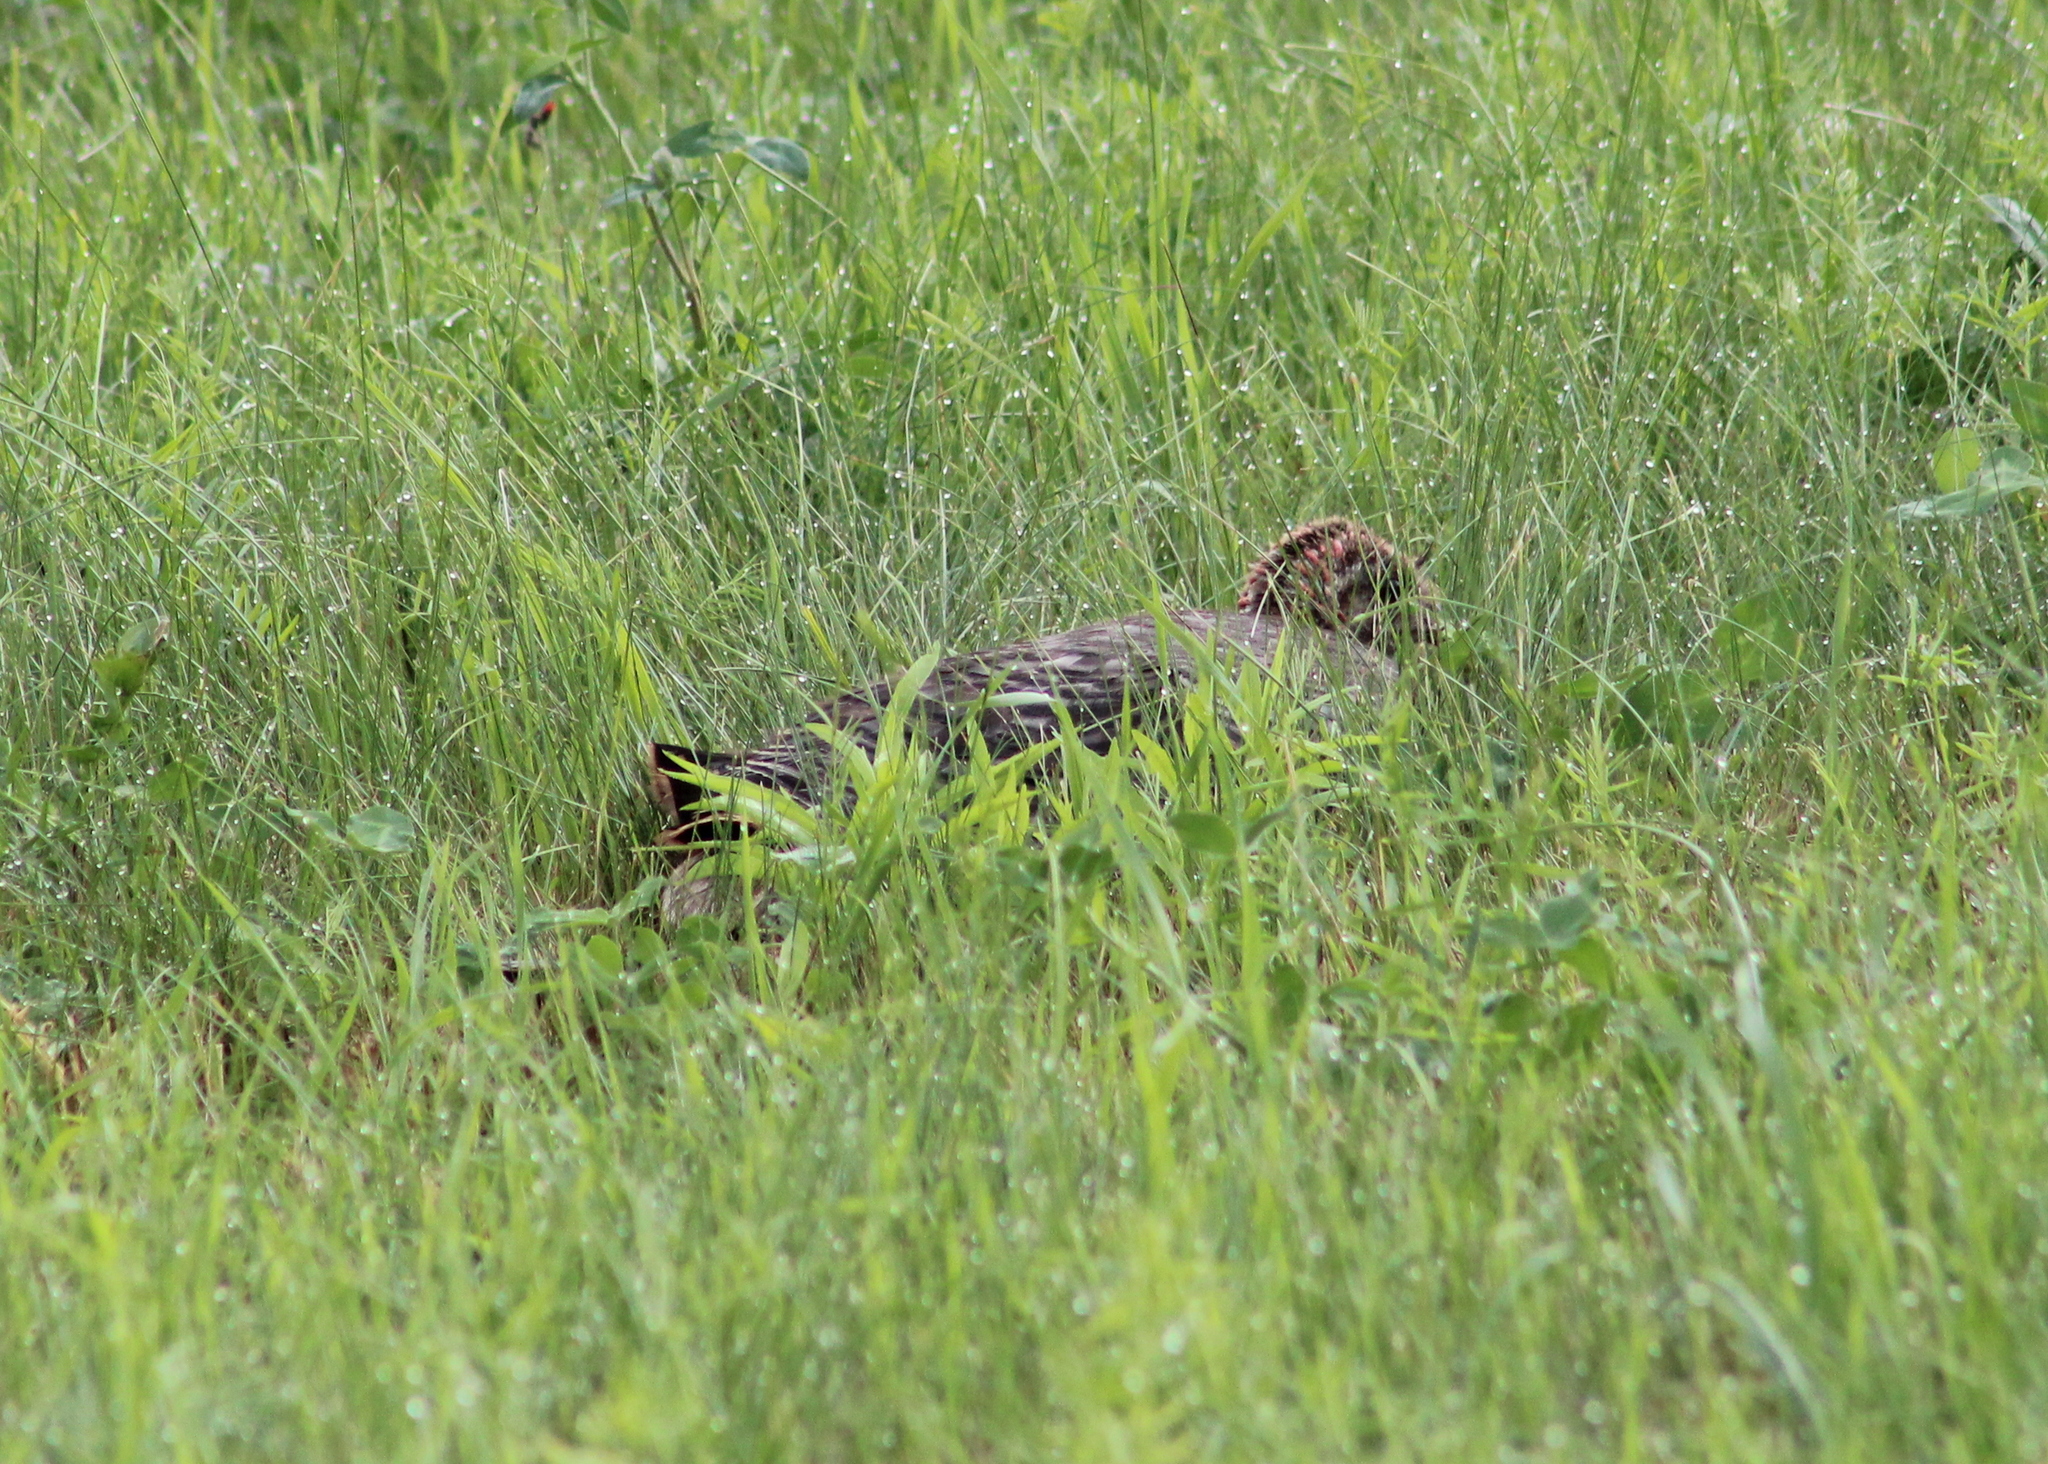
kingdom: Animalia
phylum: Chordata
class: Aves
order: Galliformes
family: Phasianidae
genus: Meleagris
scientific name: Meleagris gallopavo
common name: Wild turkey
